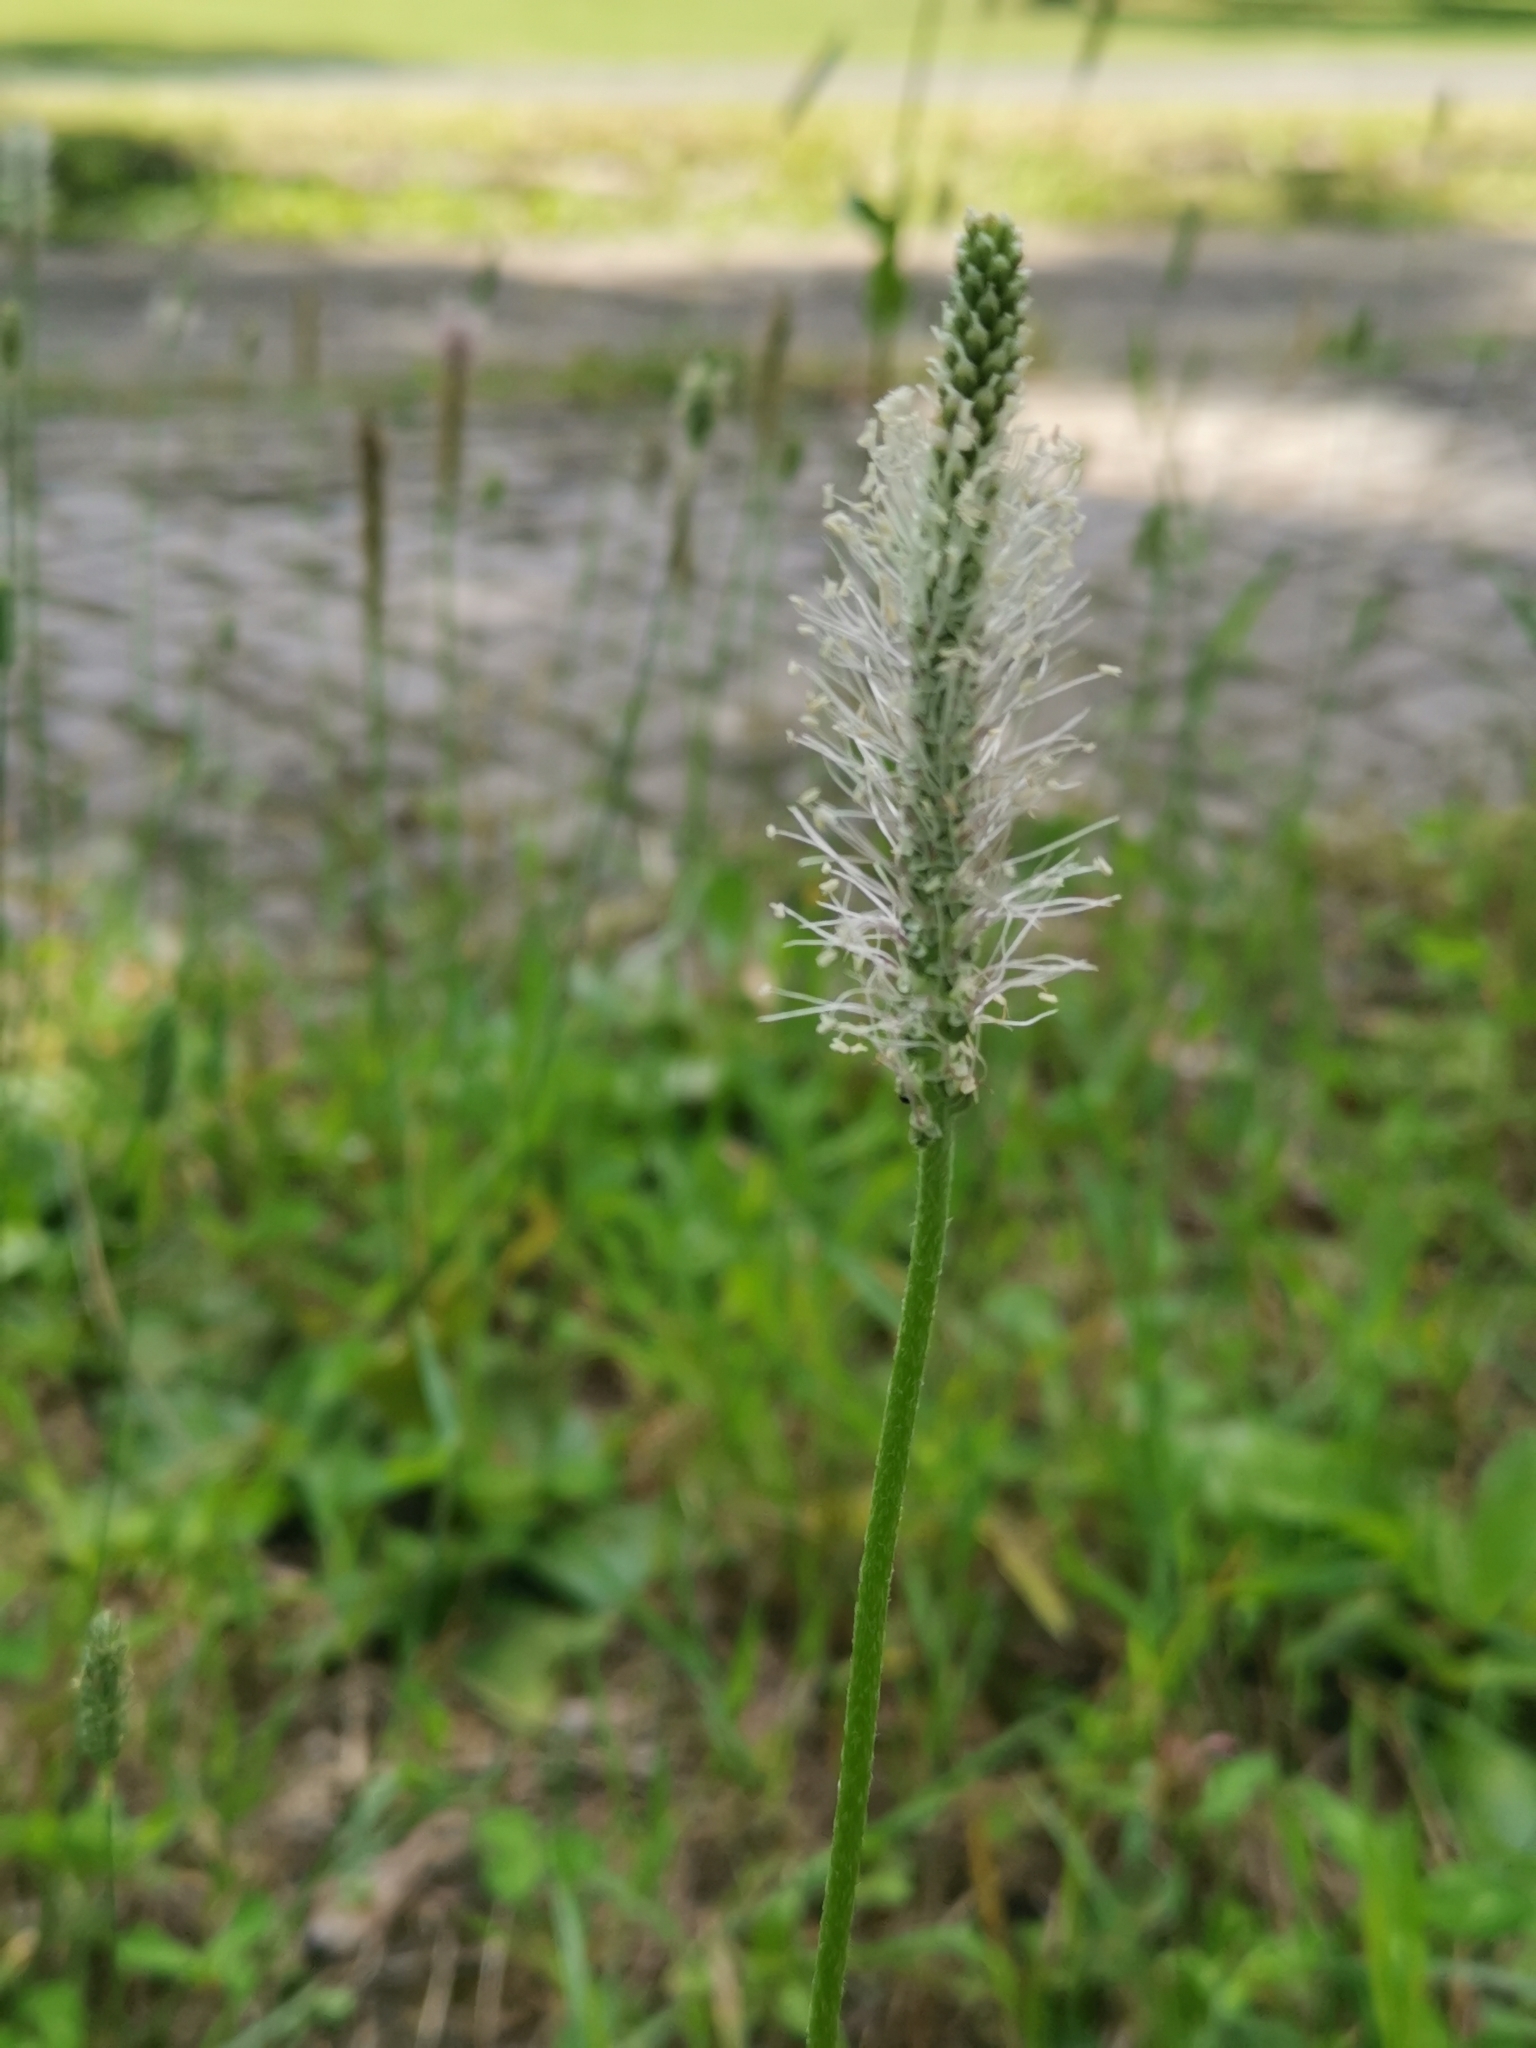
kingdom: Plantae
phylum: Tracheophyta
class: Magnoliopsida
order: Lamiales
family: Plantaginaceae
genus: Plantago
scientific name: Plantago media
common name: Hoary plantain
